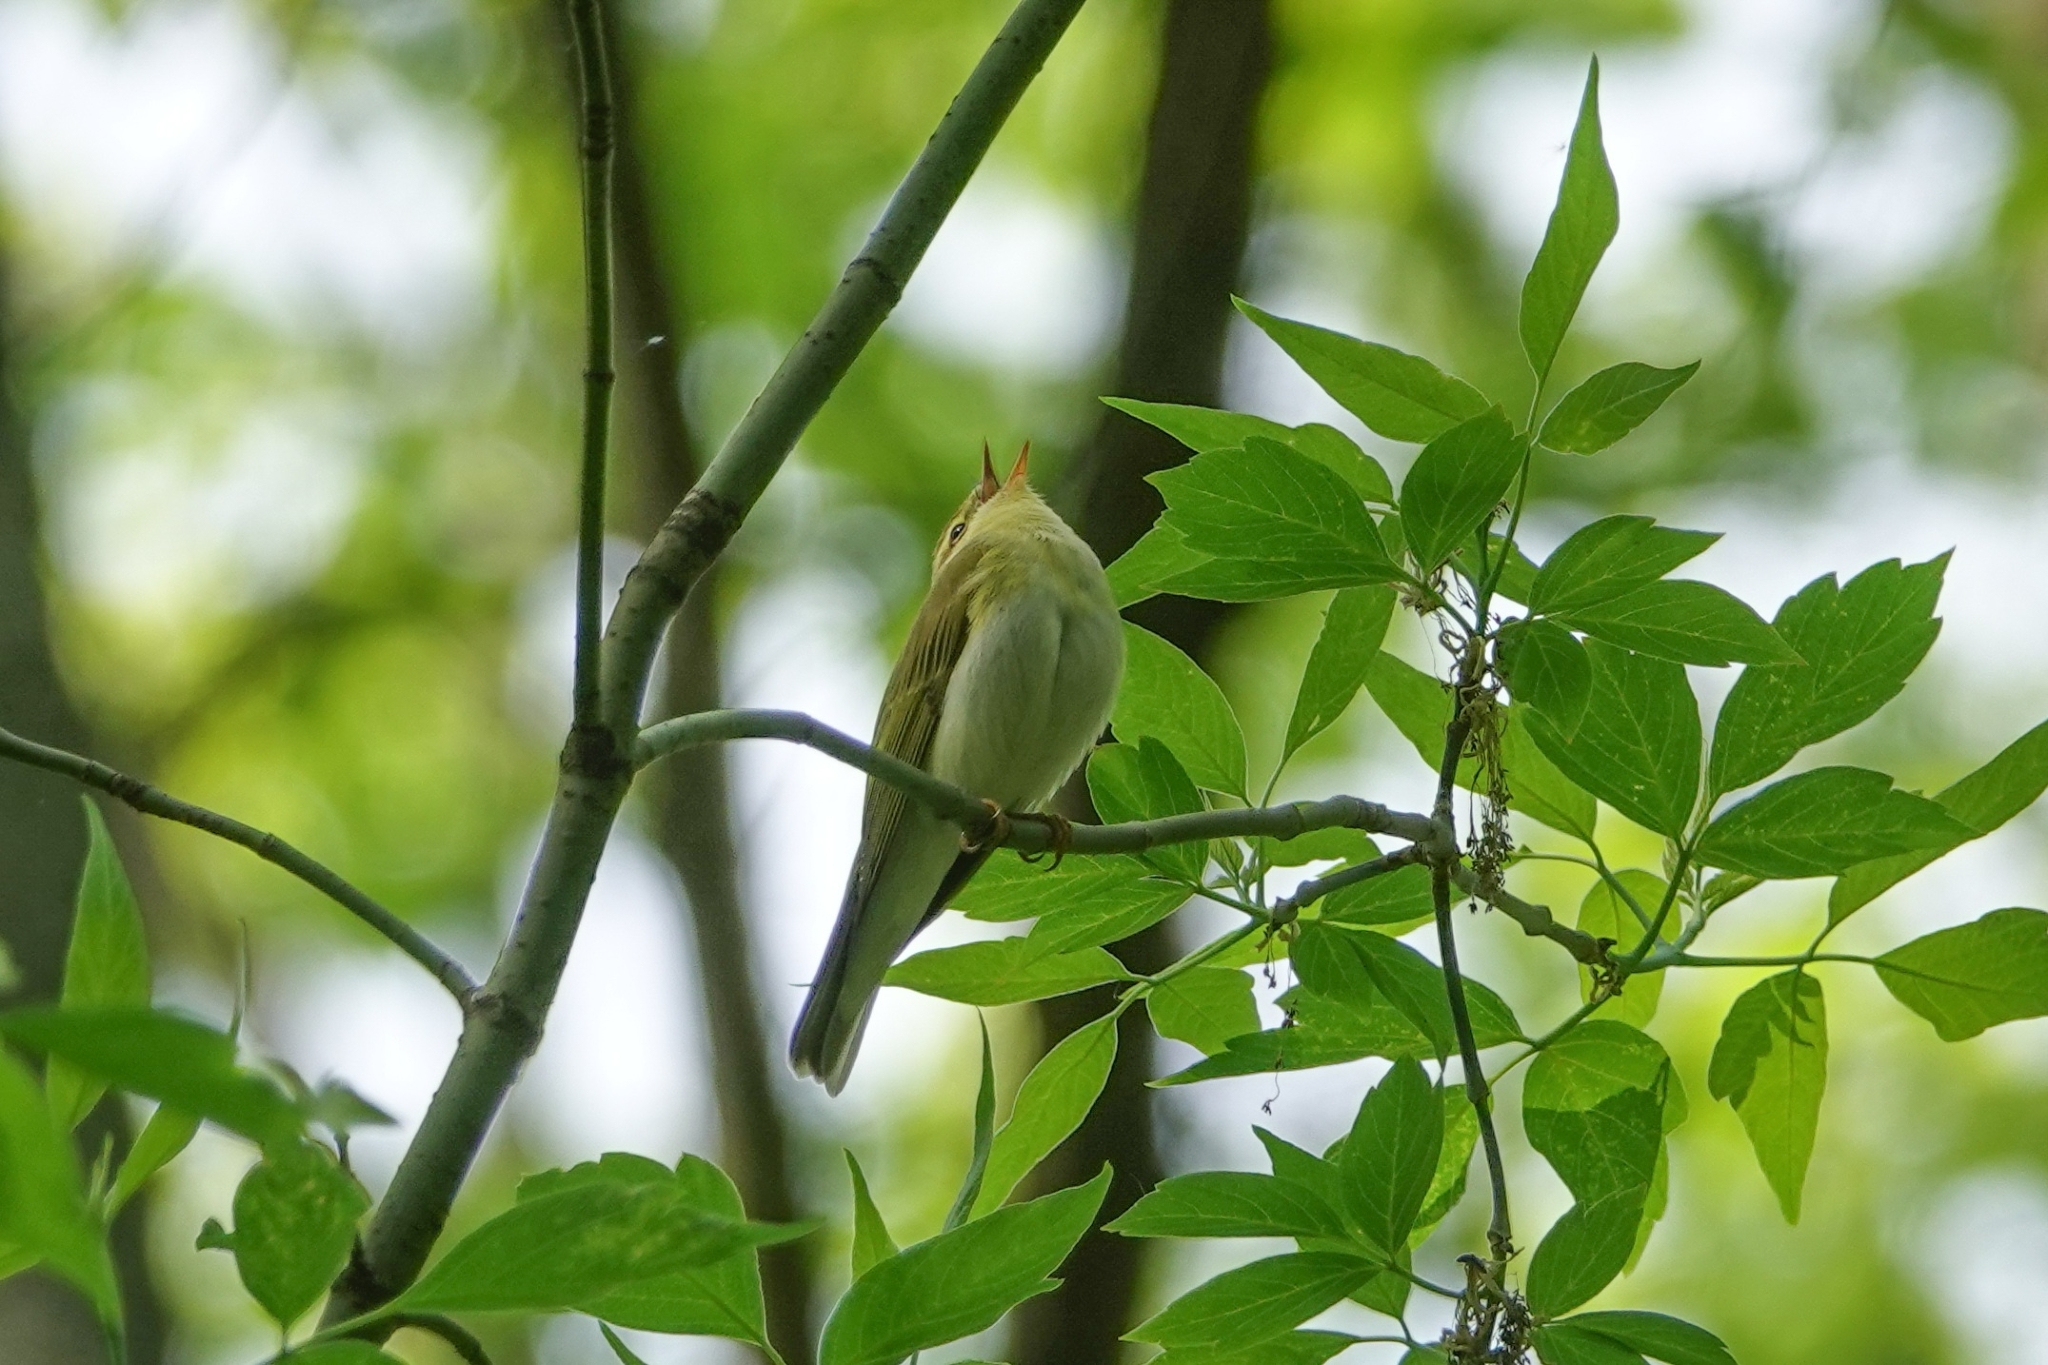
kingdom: Animalia
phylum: Chordata
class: Aves
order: Passeriformes
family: Phylloscopidae
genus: Phylloscopus
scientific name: Phylloscopus sibillatrix
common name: Wood warbler
